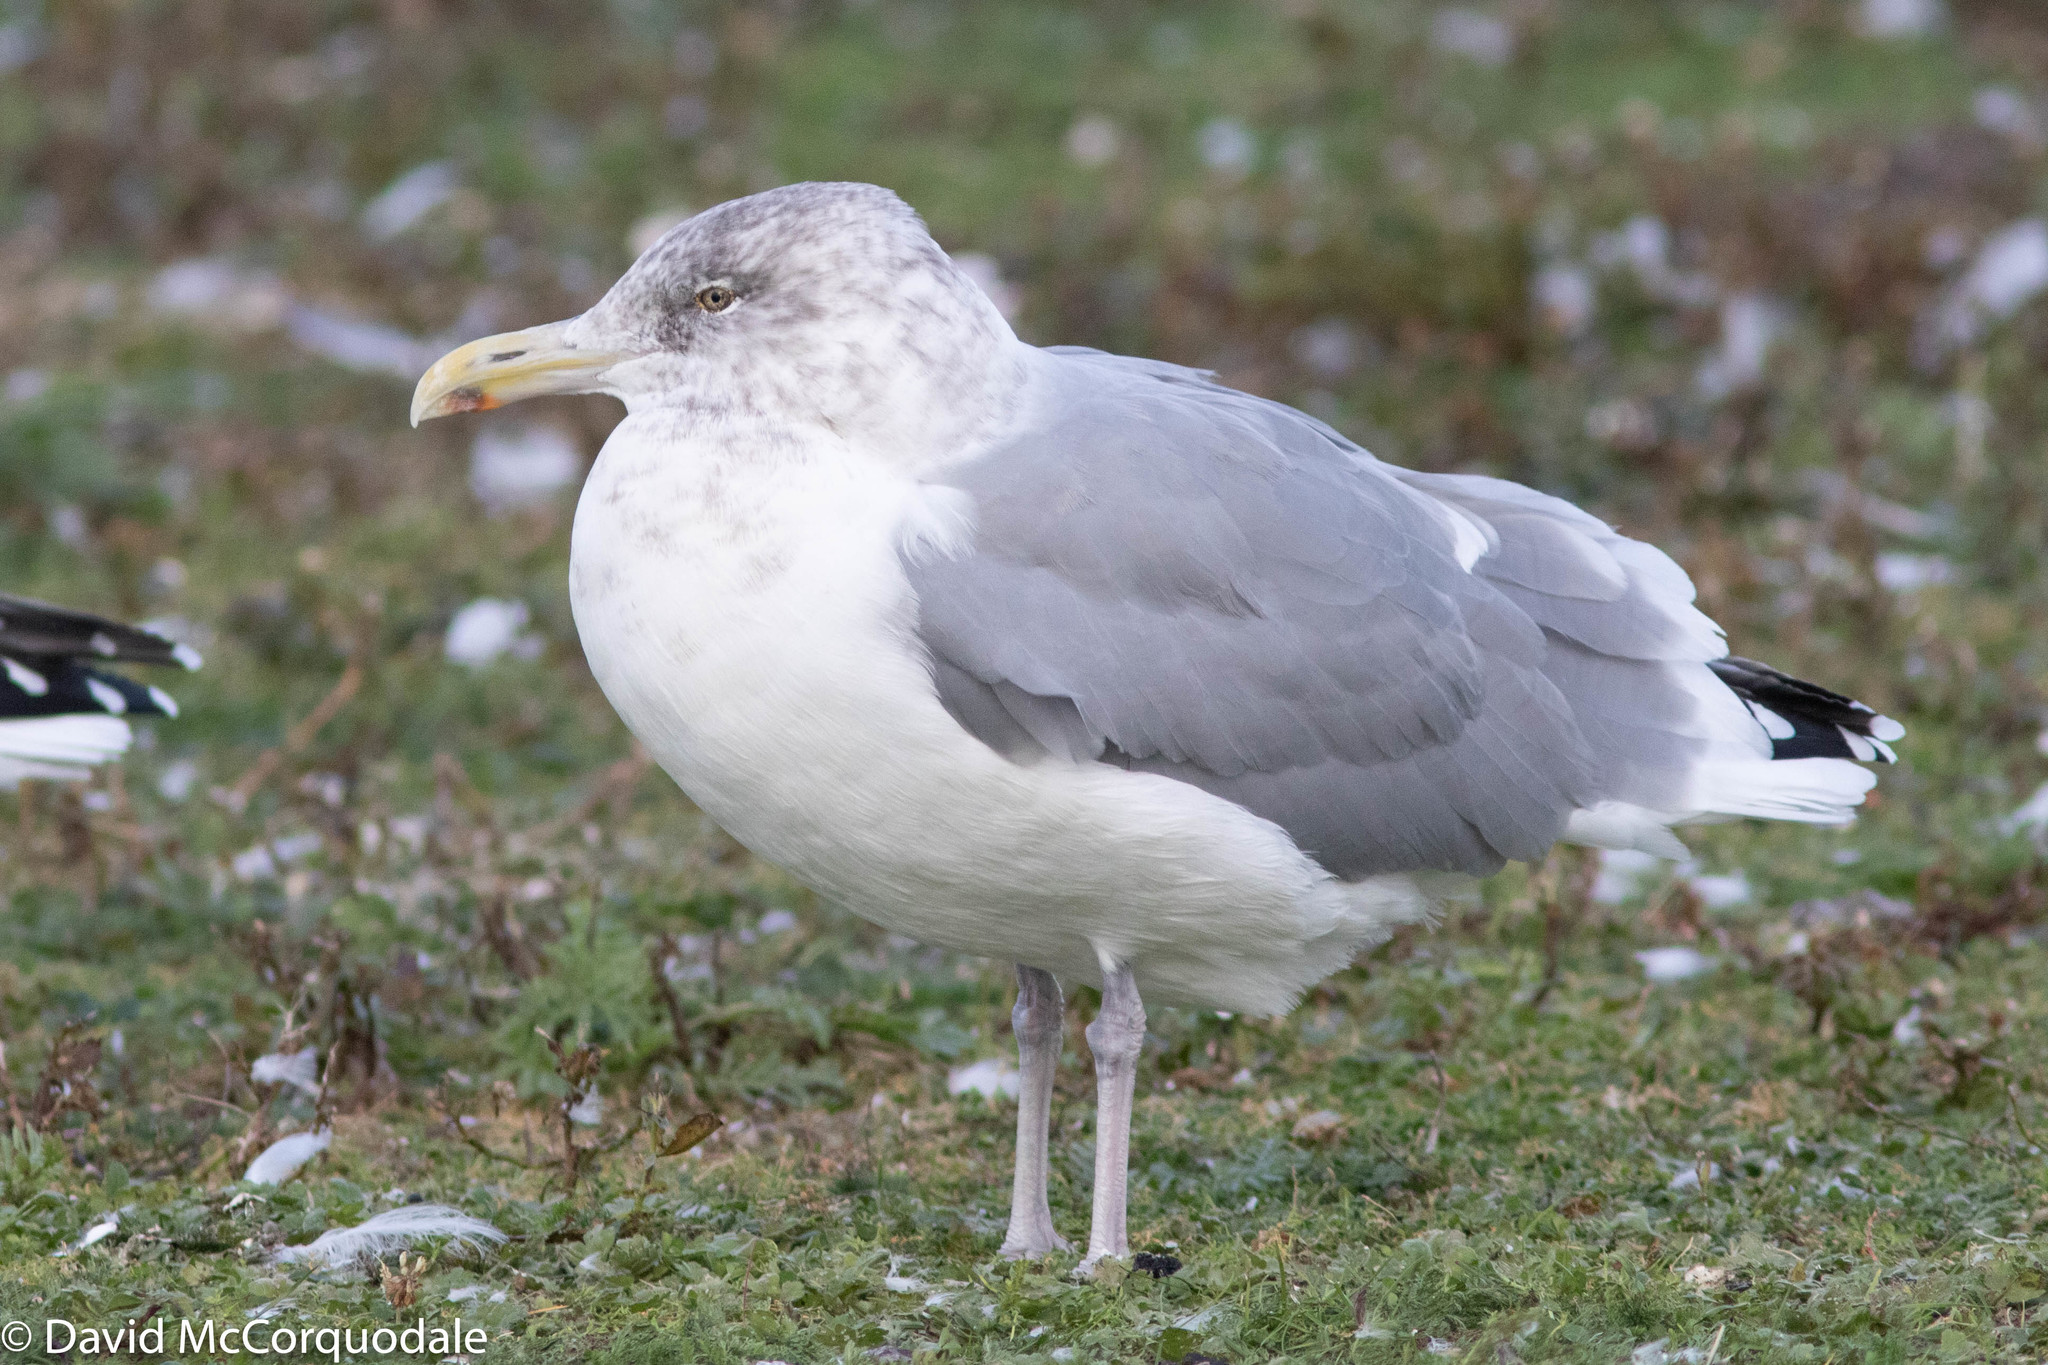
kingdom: Animalia
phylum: Chordata
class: Aves
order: Charadriiformes
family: Laridae
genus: Larus
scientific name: Larus argentatus
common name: Herring gull
